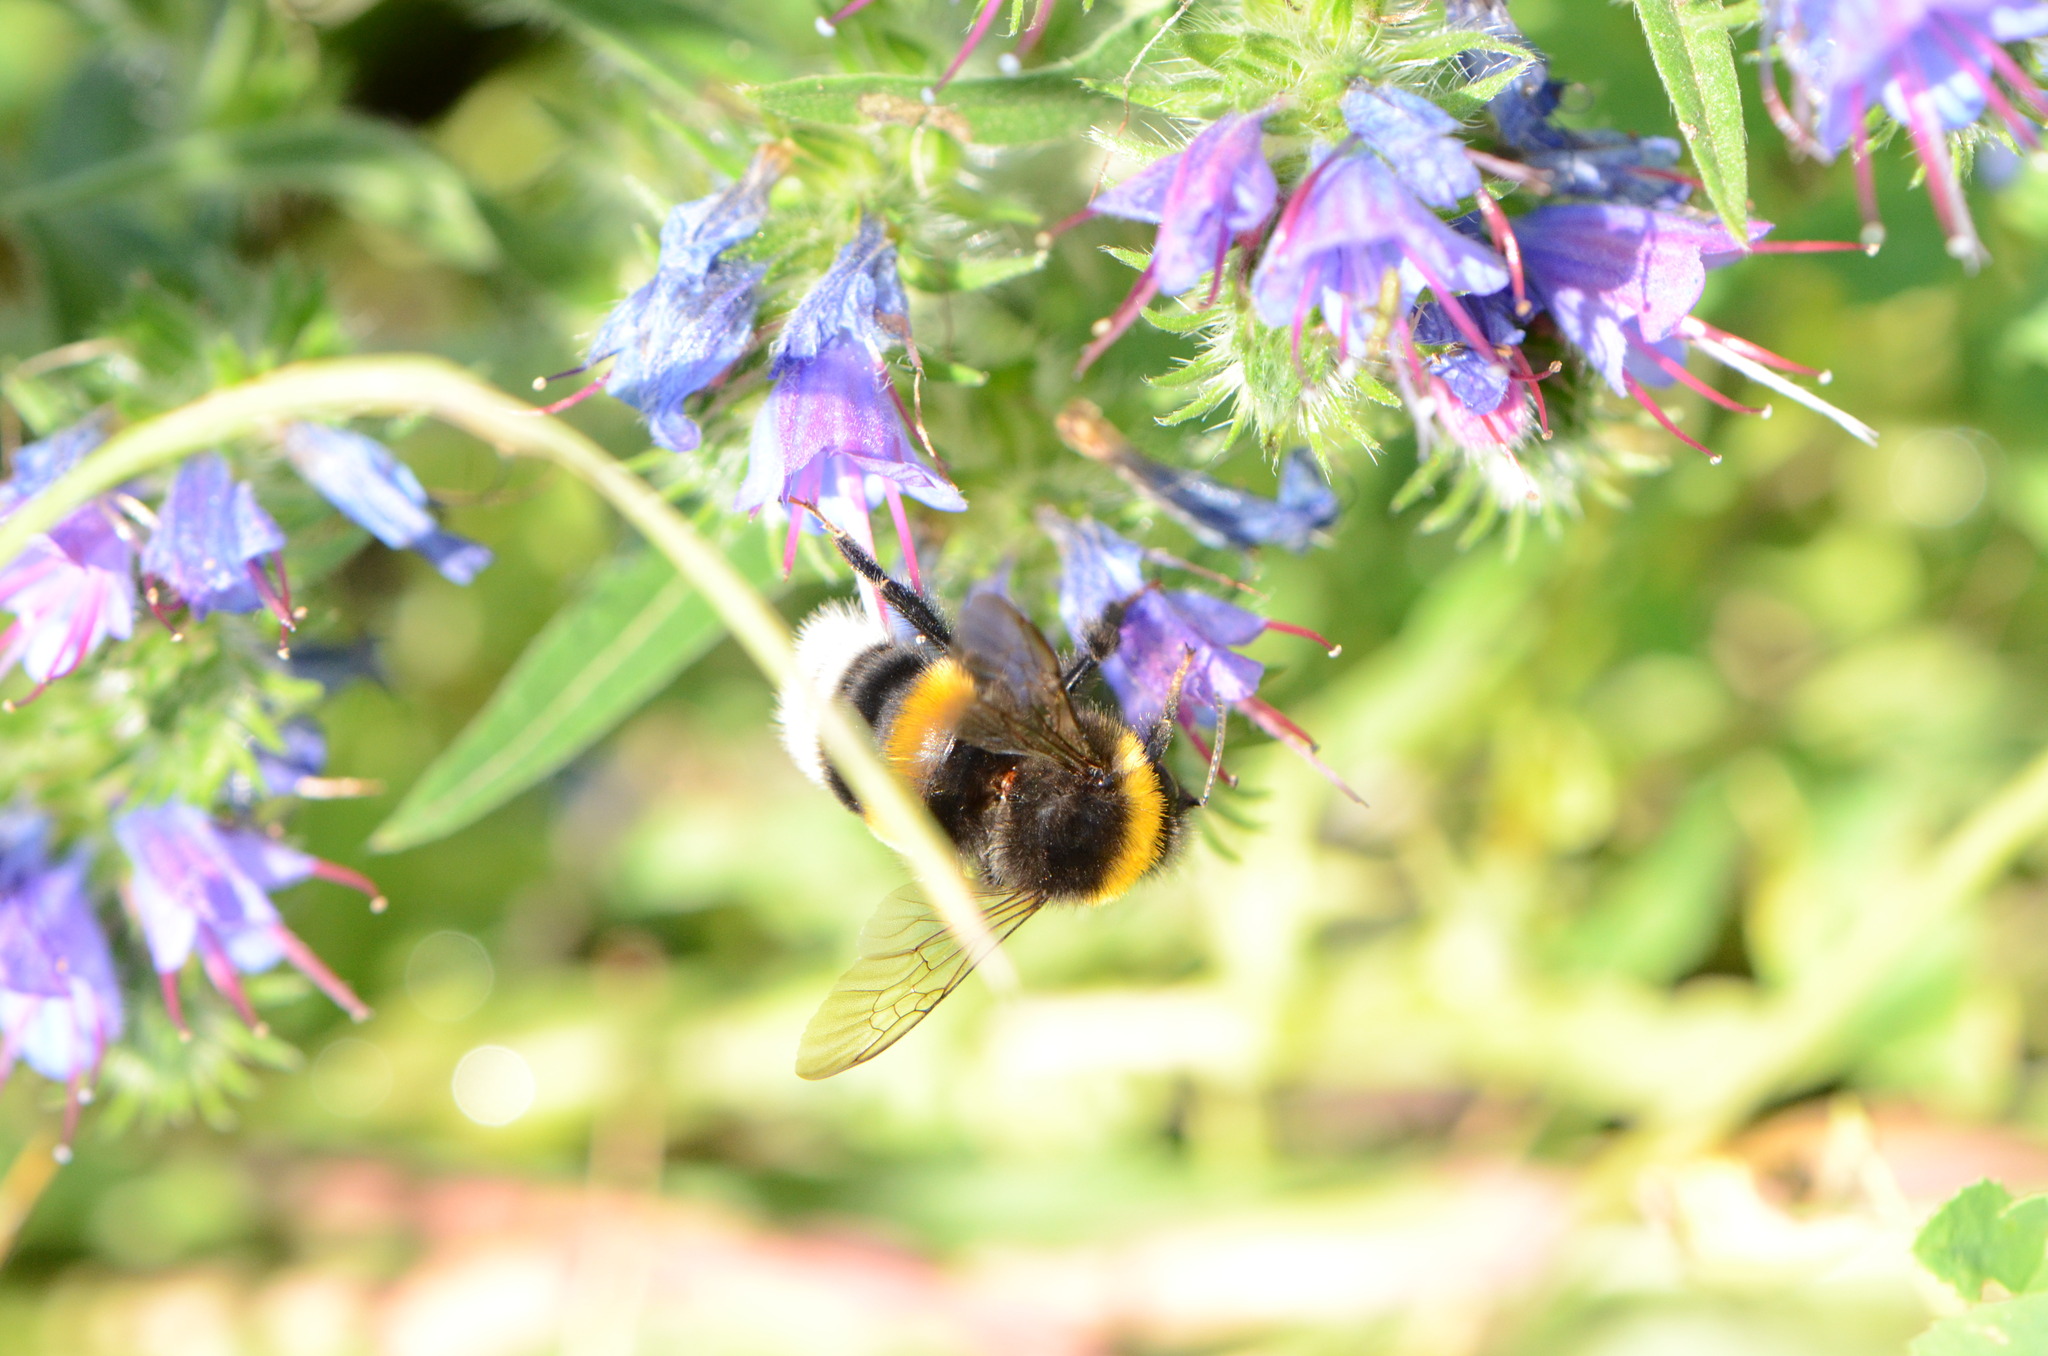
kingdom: Plantae
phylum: Tracheophyta
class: Magnoliopsida
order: Boraginales
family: Boraginaceae
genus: Echium
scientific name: Echium vulgare
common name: Common viper's bugloss
